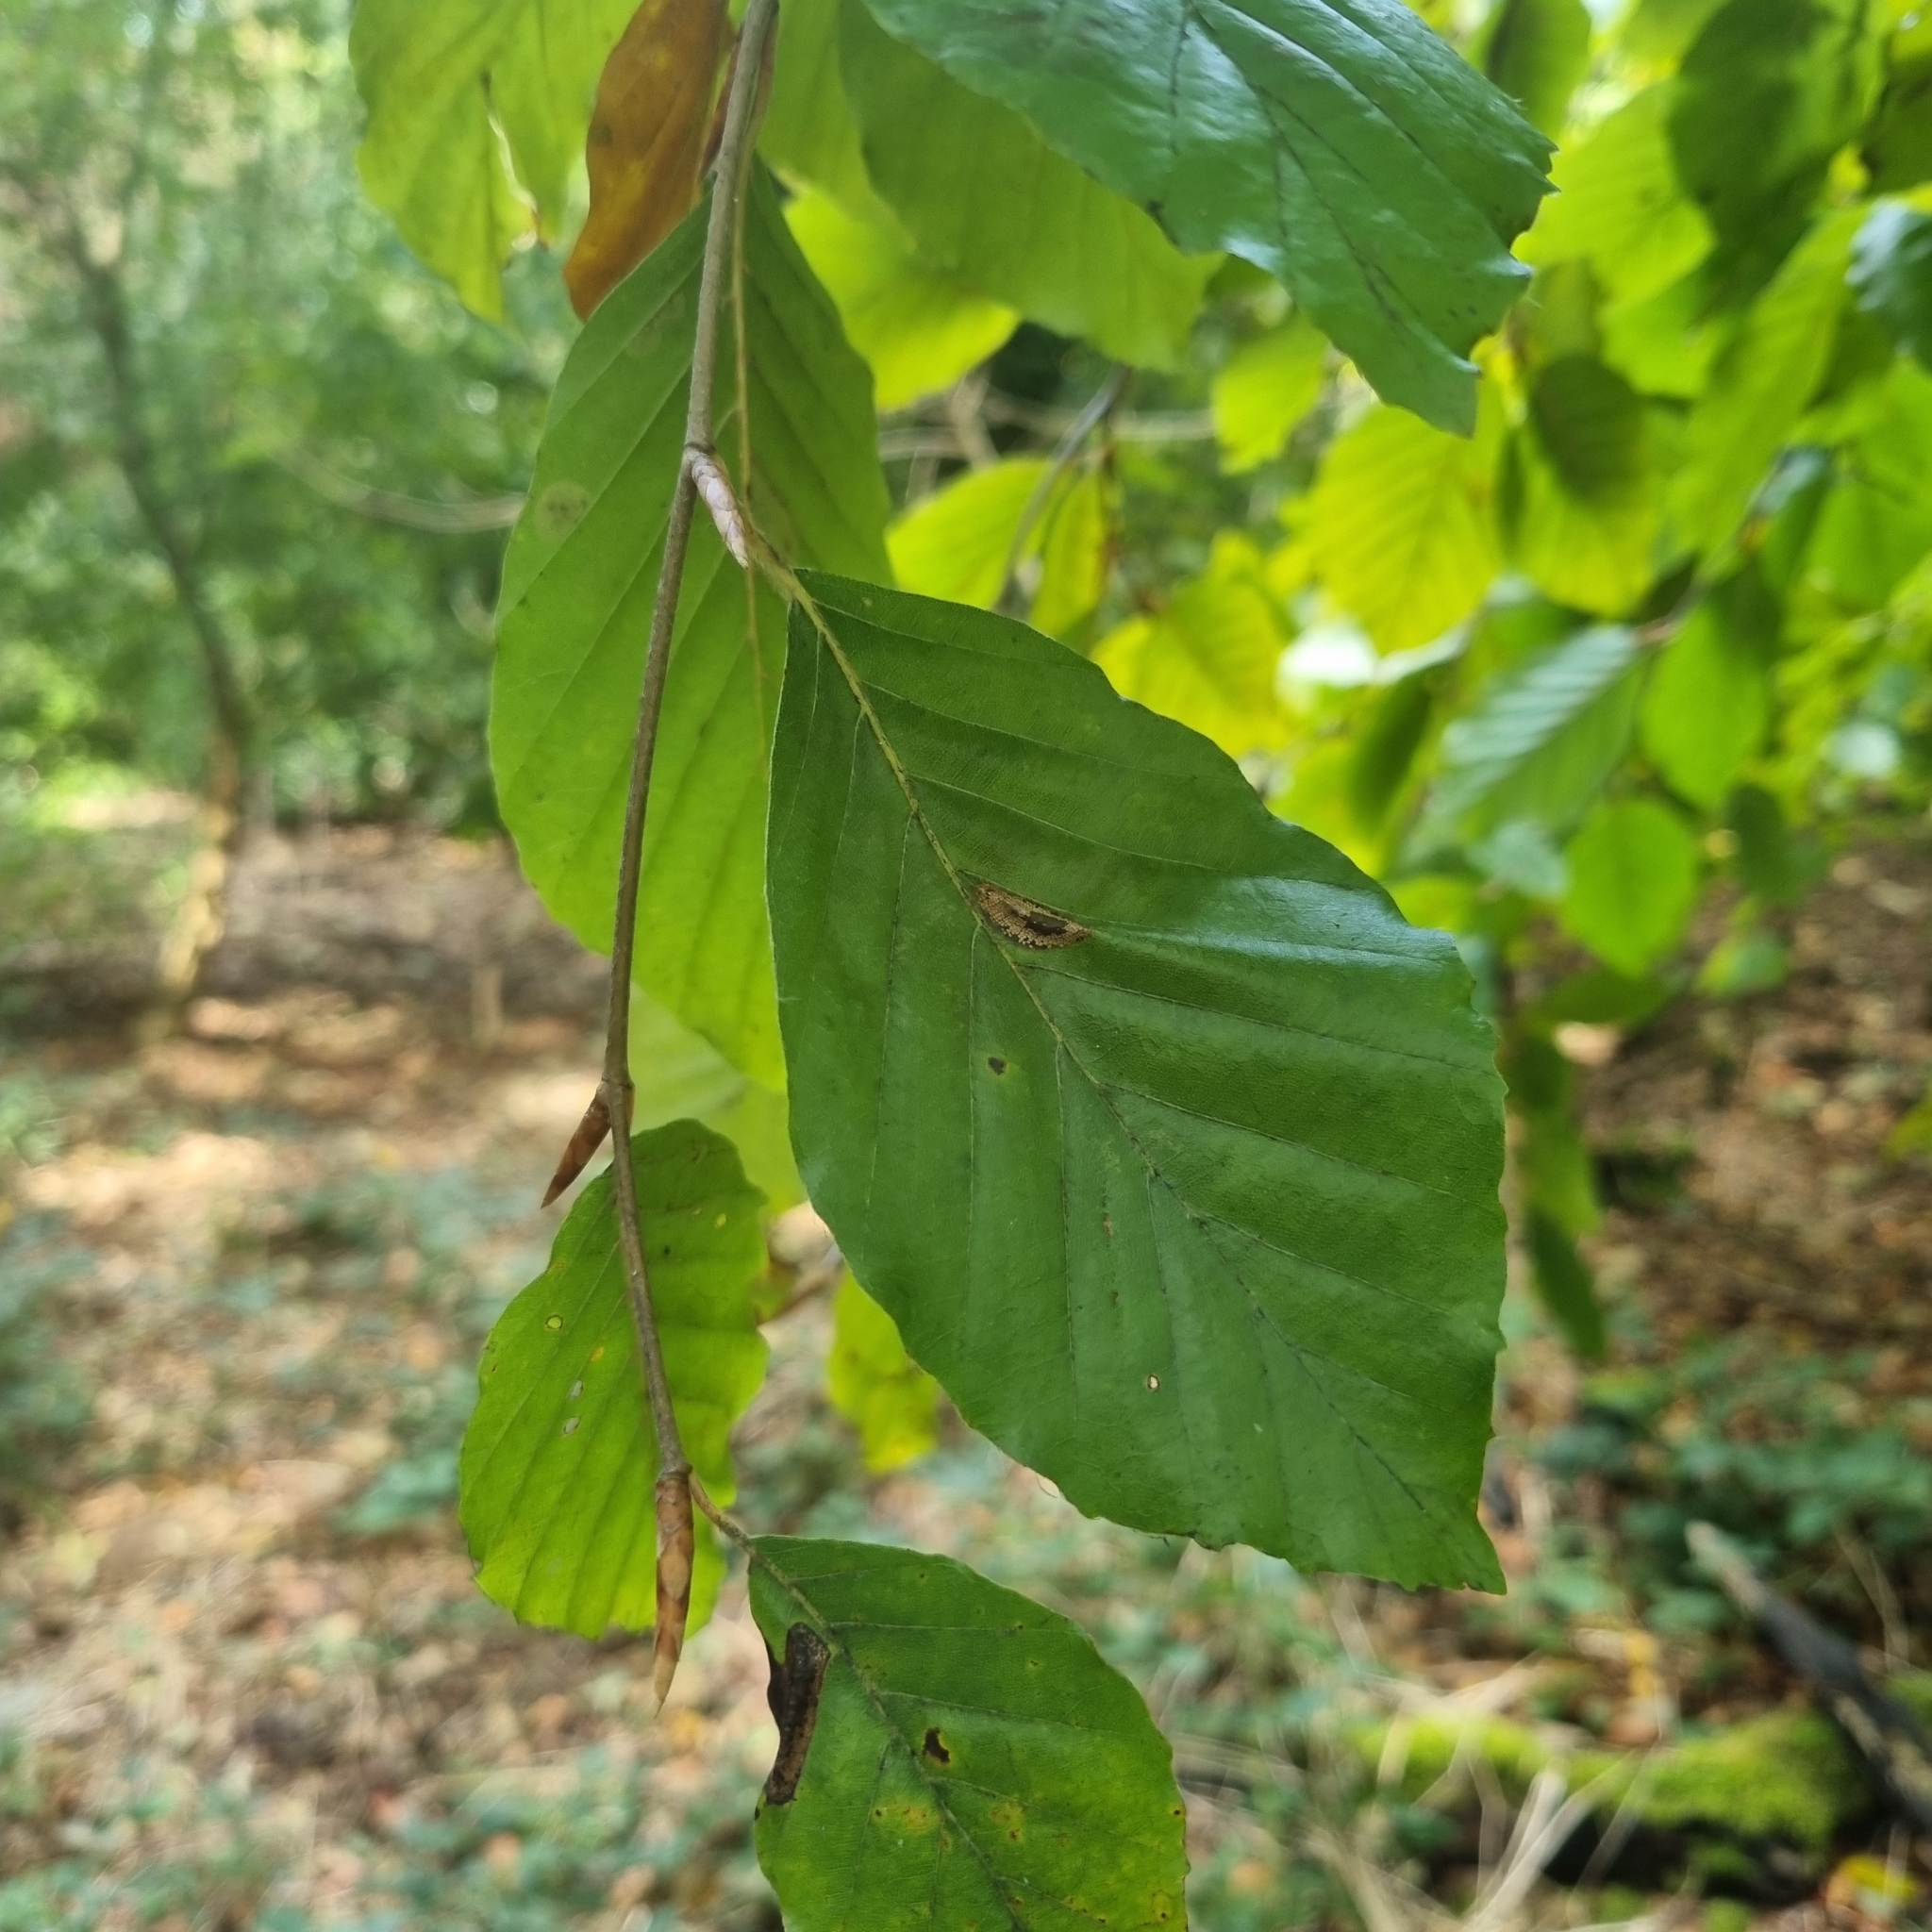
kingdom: Plantae
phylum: Tracheophyta
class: Magnoliopsida
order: Fagales
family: Fagaceae
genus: Fagus
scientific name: Fagus sylvatica
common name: Beech
